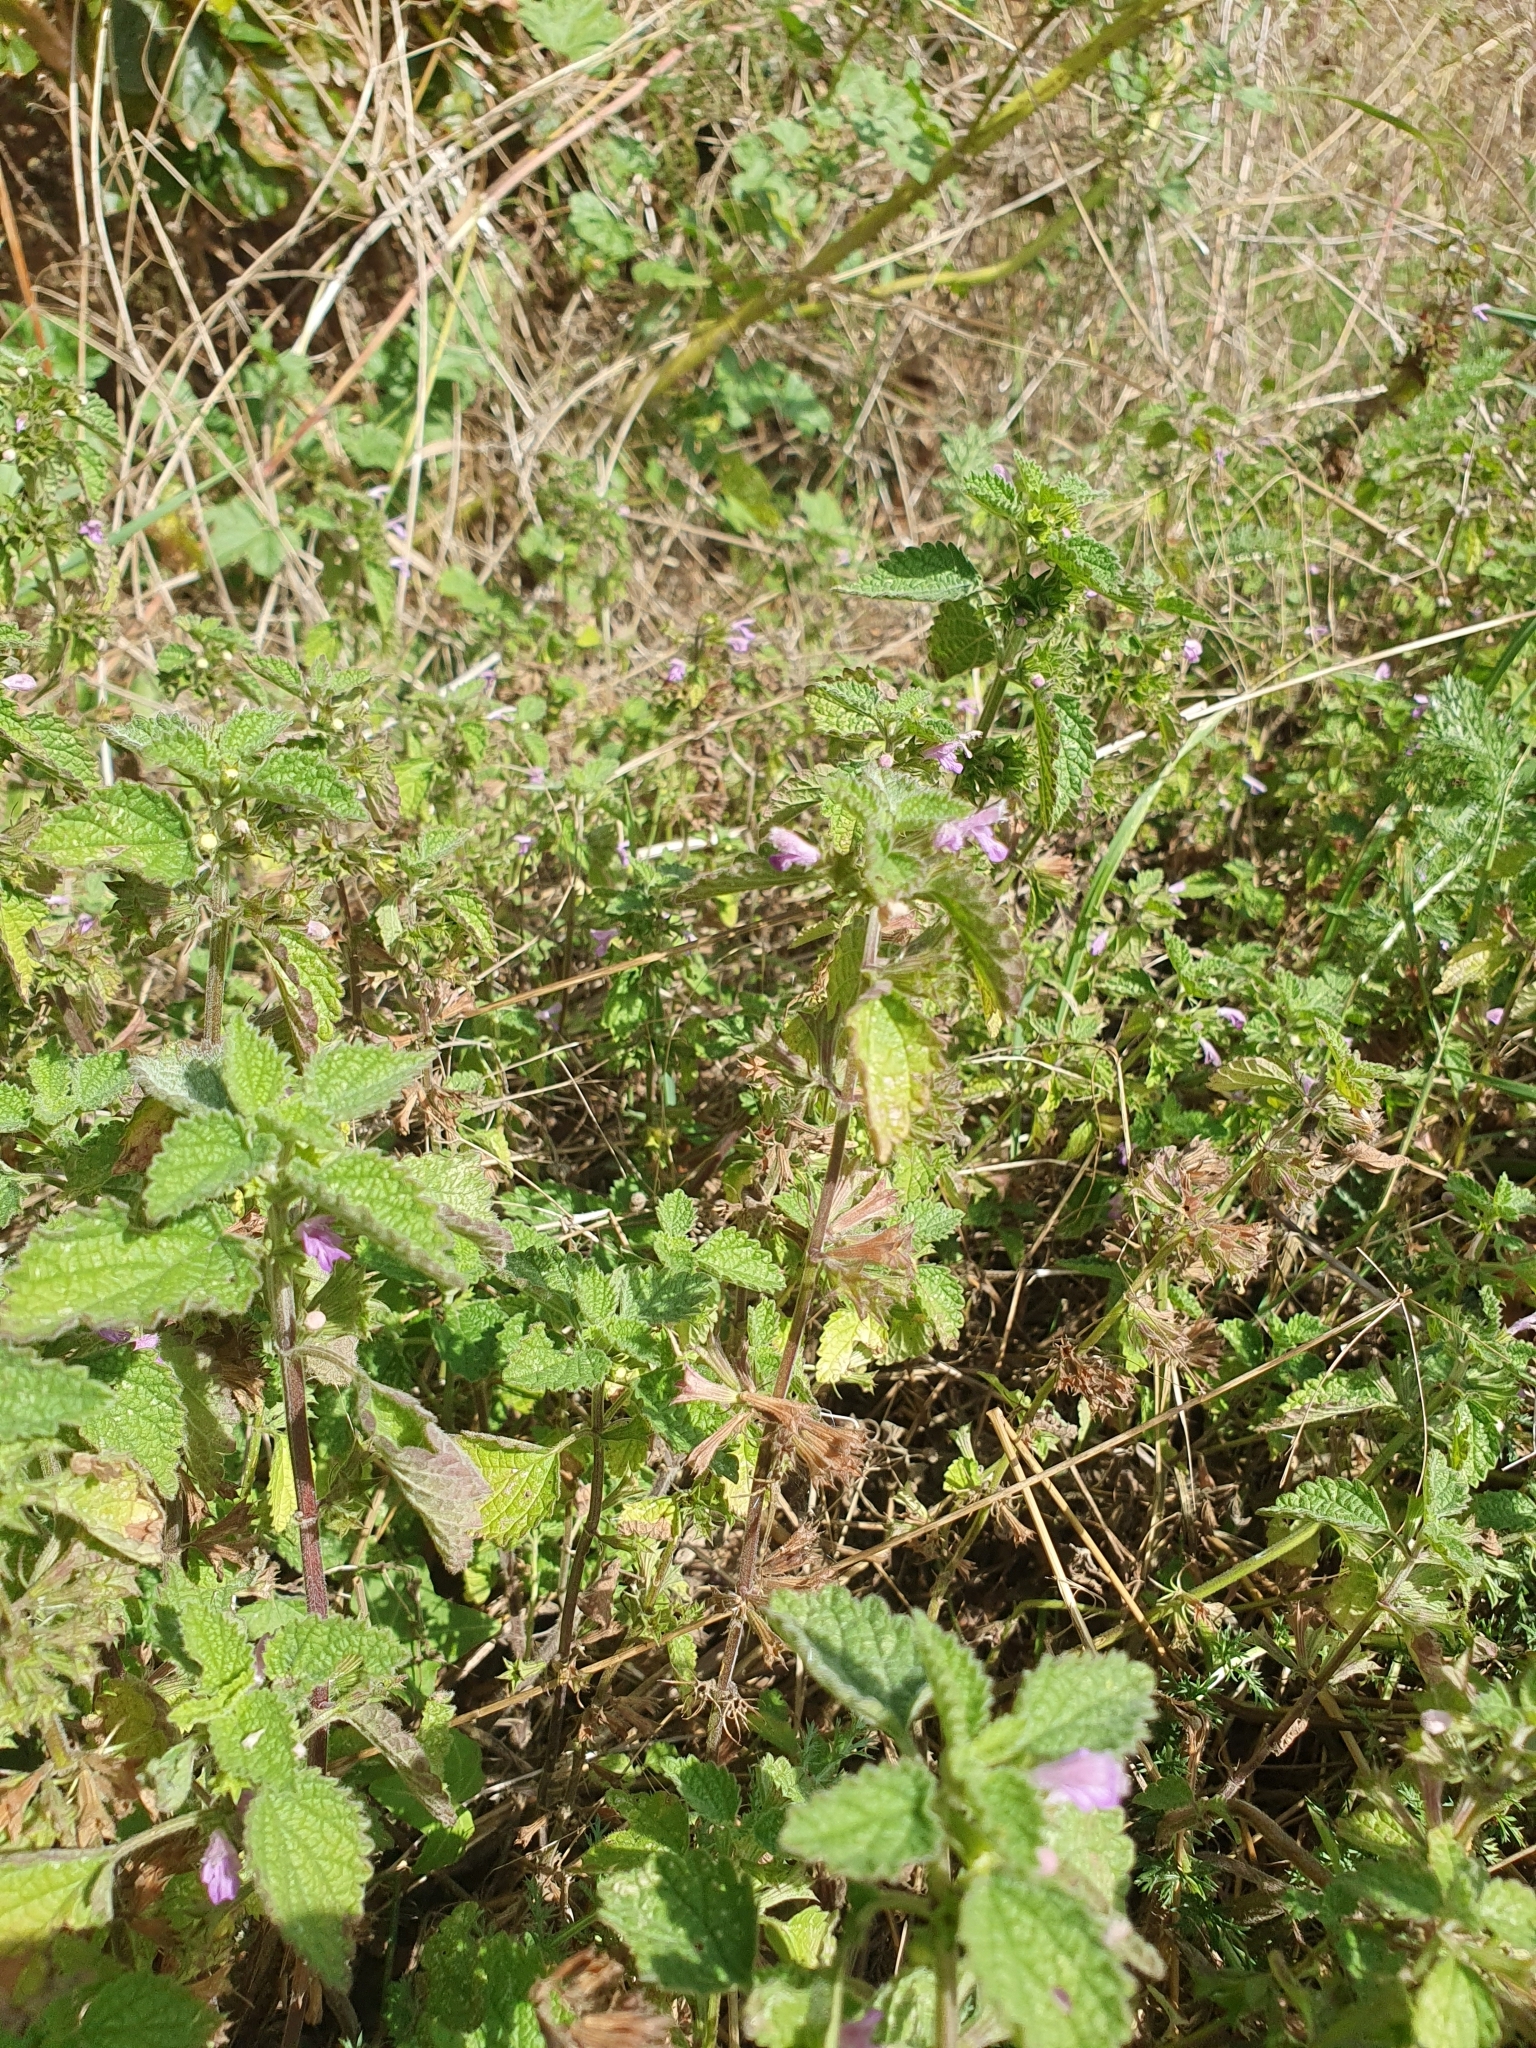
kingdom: Plantae
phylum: Tracheophyta
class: Magnoliopsida
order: Lamiales
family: Lamiaceae
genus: Ballota
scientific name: Ballota nigra
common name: Black horehound
